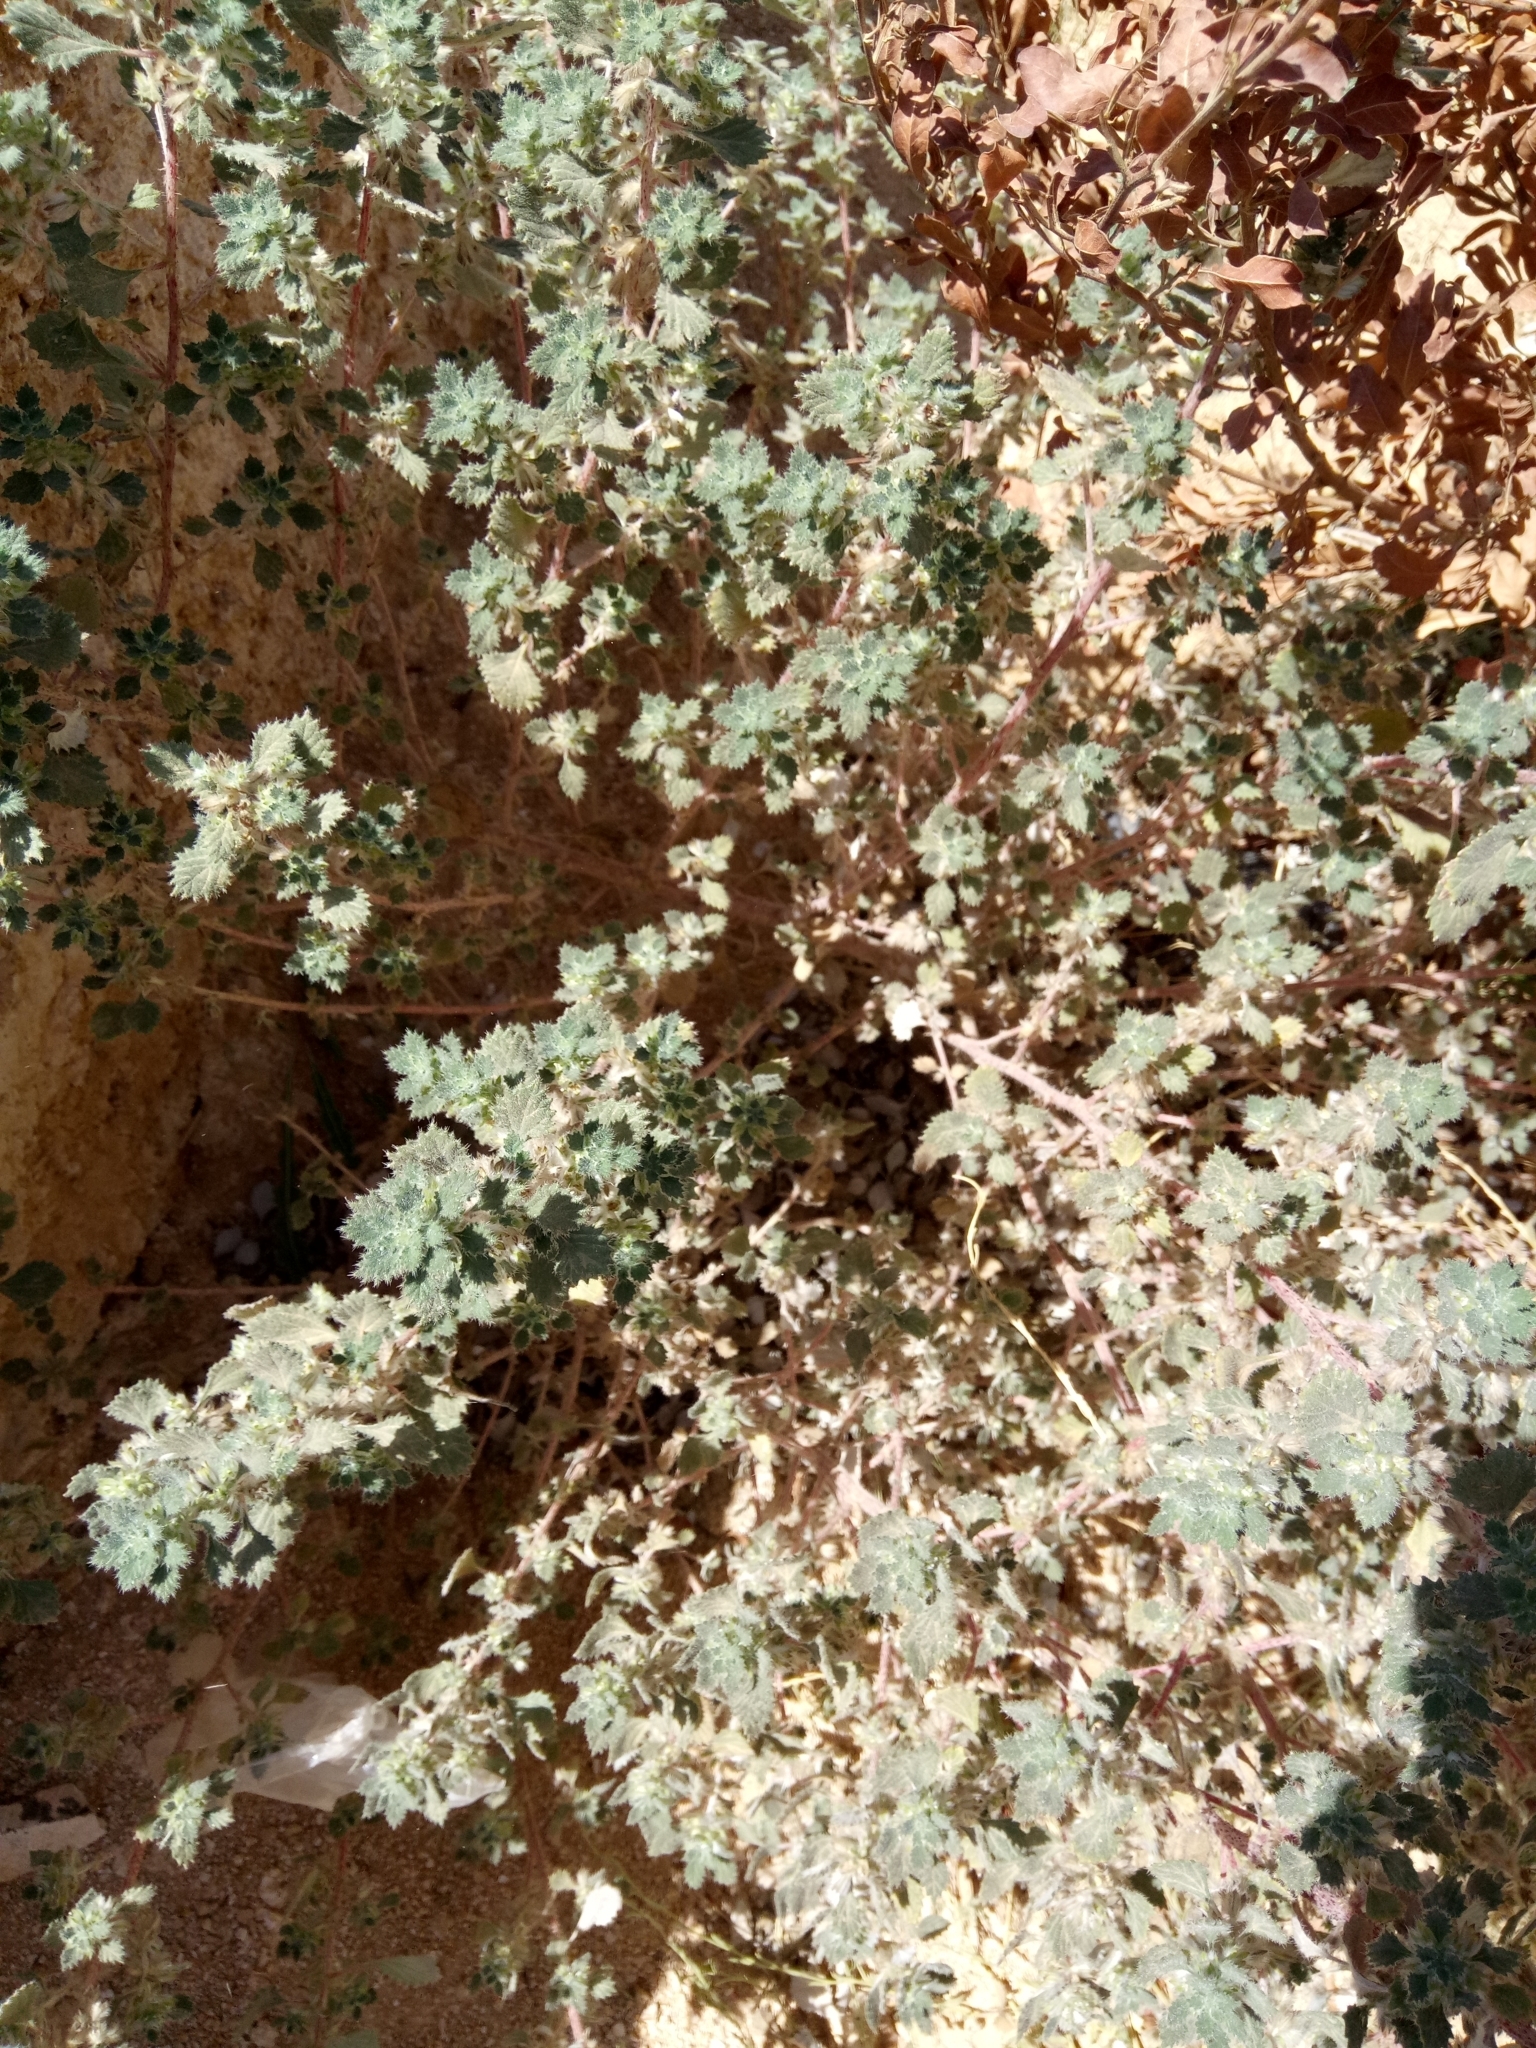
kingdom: Plantae
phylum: Tracheophyta
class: Magnoliopsida
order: Rosales
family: Urticaceae
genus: Forsskaolea
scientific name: Forsskaolea tenacissima
